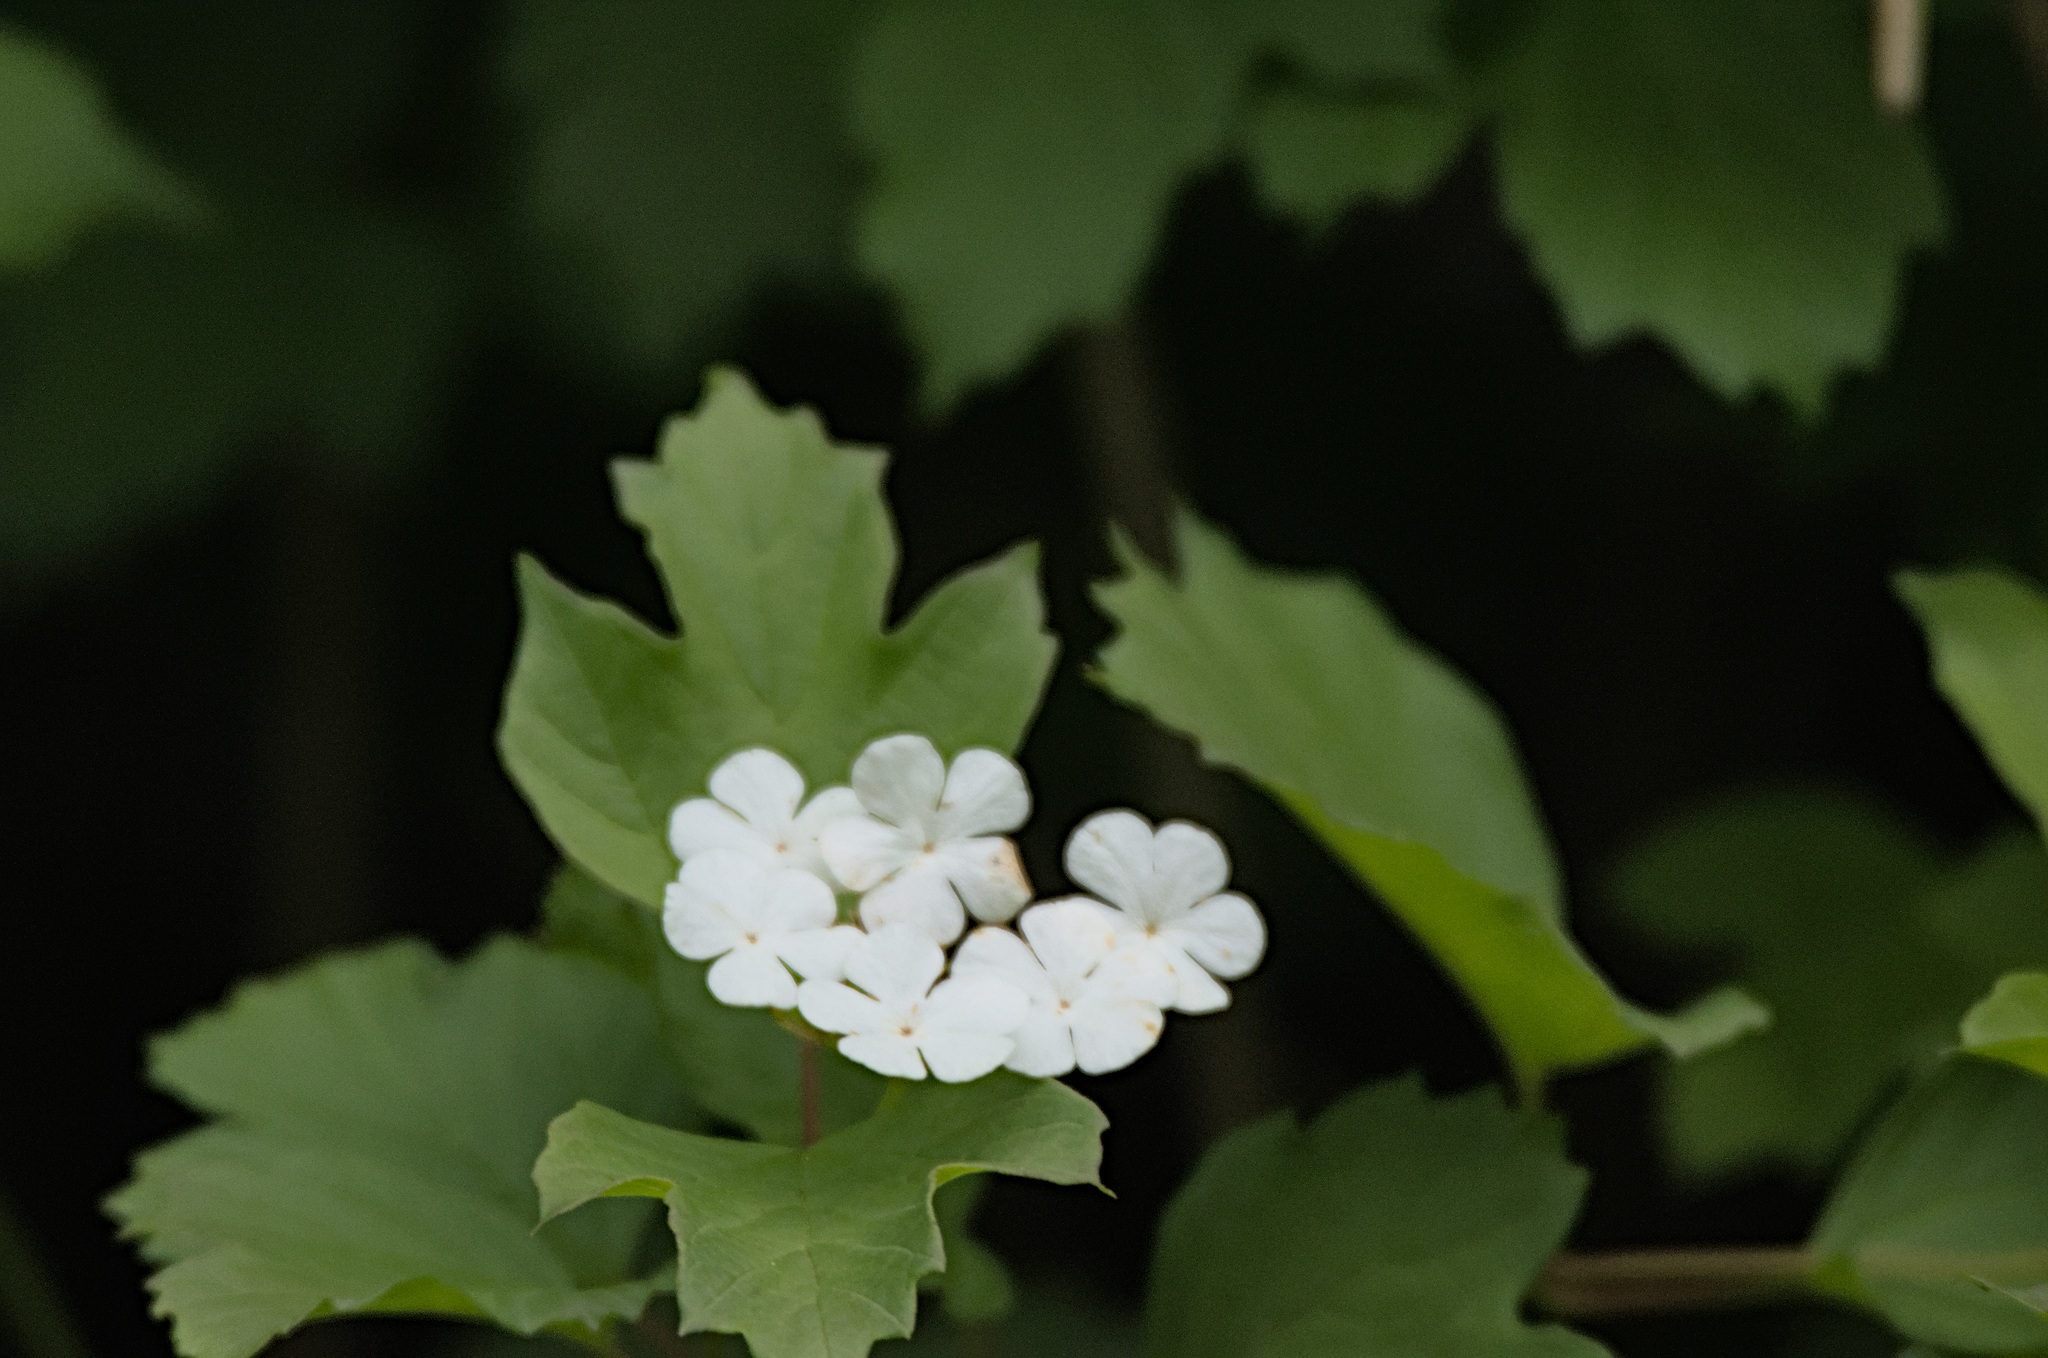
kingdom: Plantae
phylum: Tracheophyta
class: Magnoliopsida
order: Dipsacales
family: Viburnaceae
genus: Viburnum
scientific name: Viburnum opulus
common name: Guelder-rose
